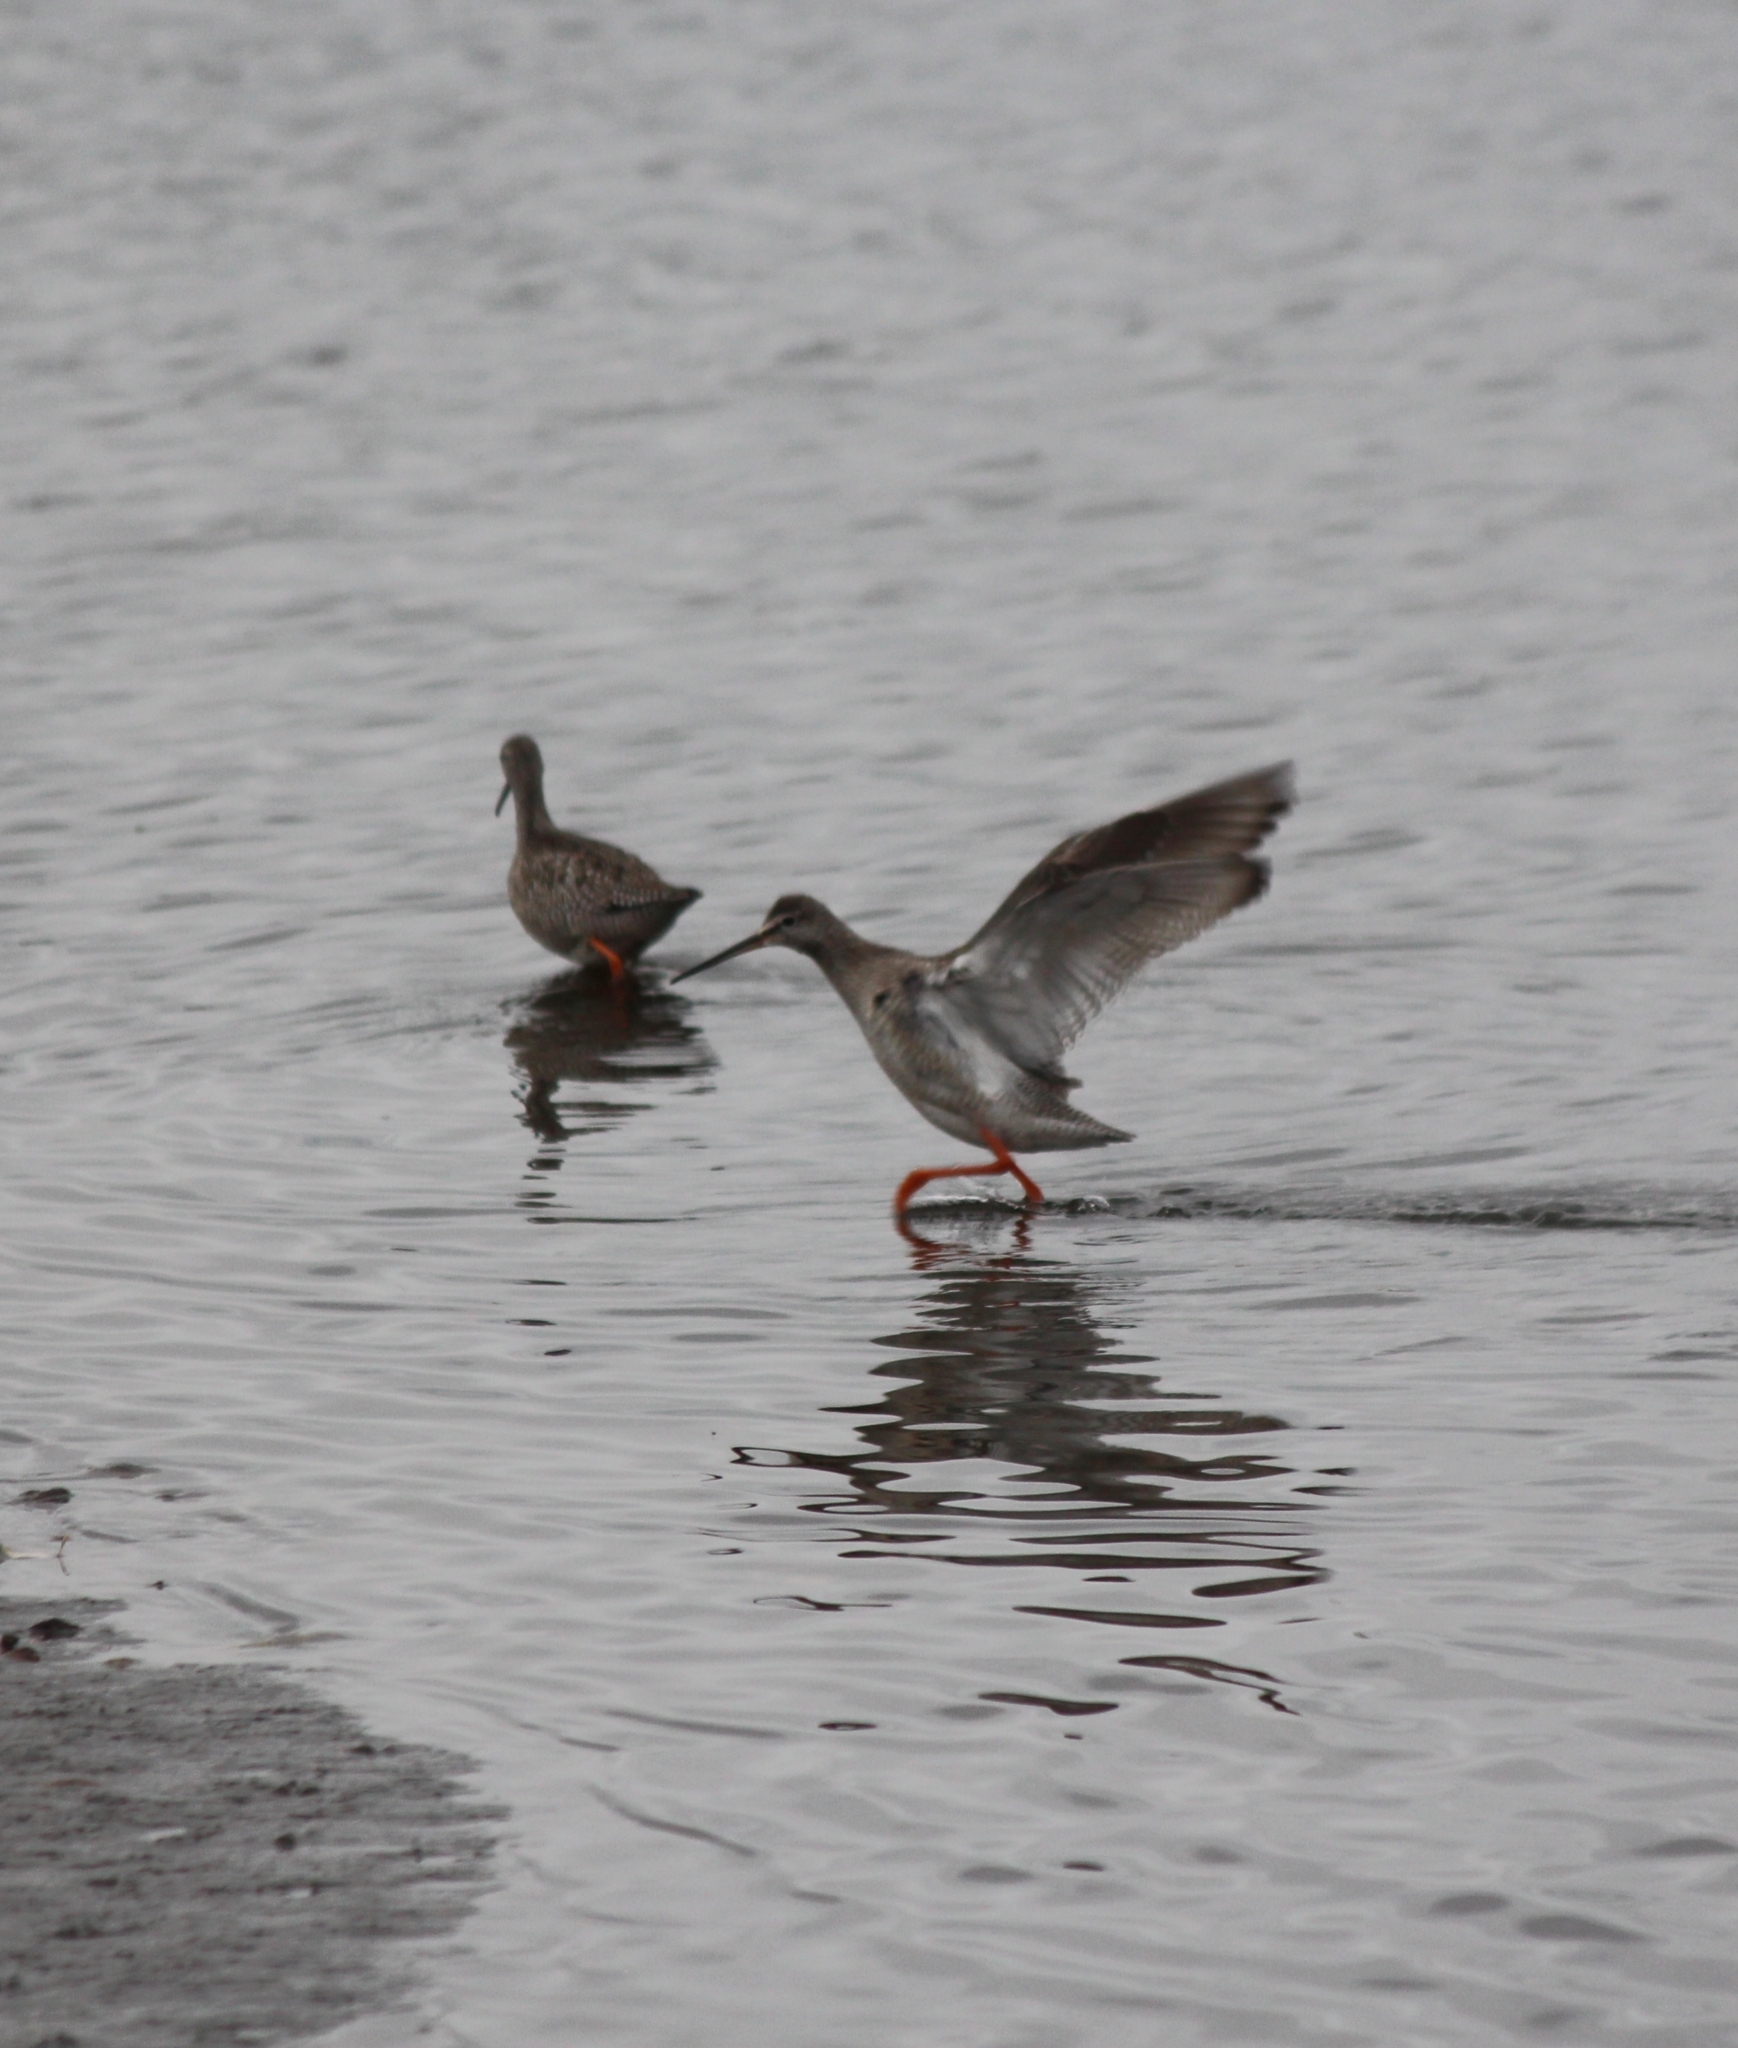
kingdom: Animalia
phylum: Chordata
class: Aves
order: Charadriiformes
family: Scolopacidae
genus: Tringa
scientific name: Tringa erythropus
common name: Spotted redshank
